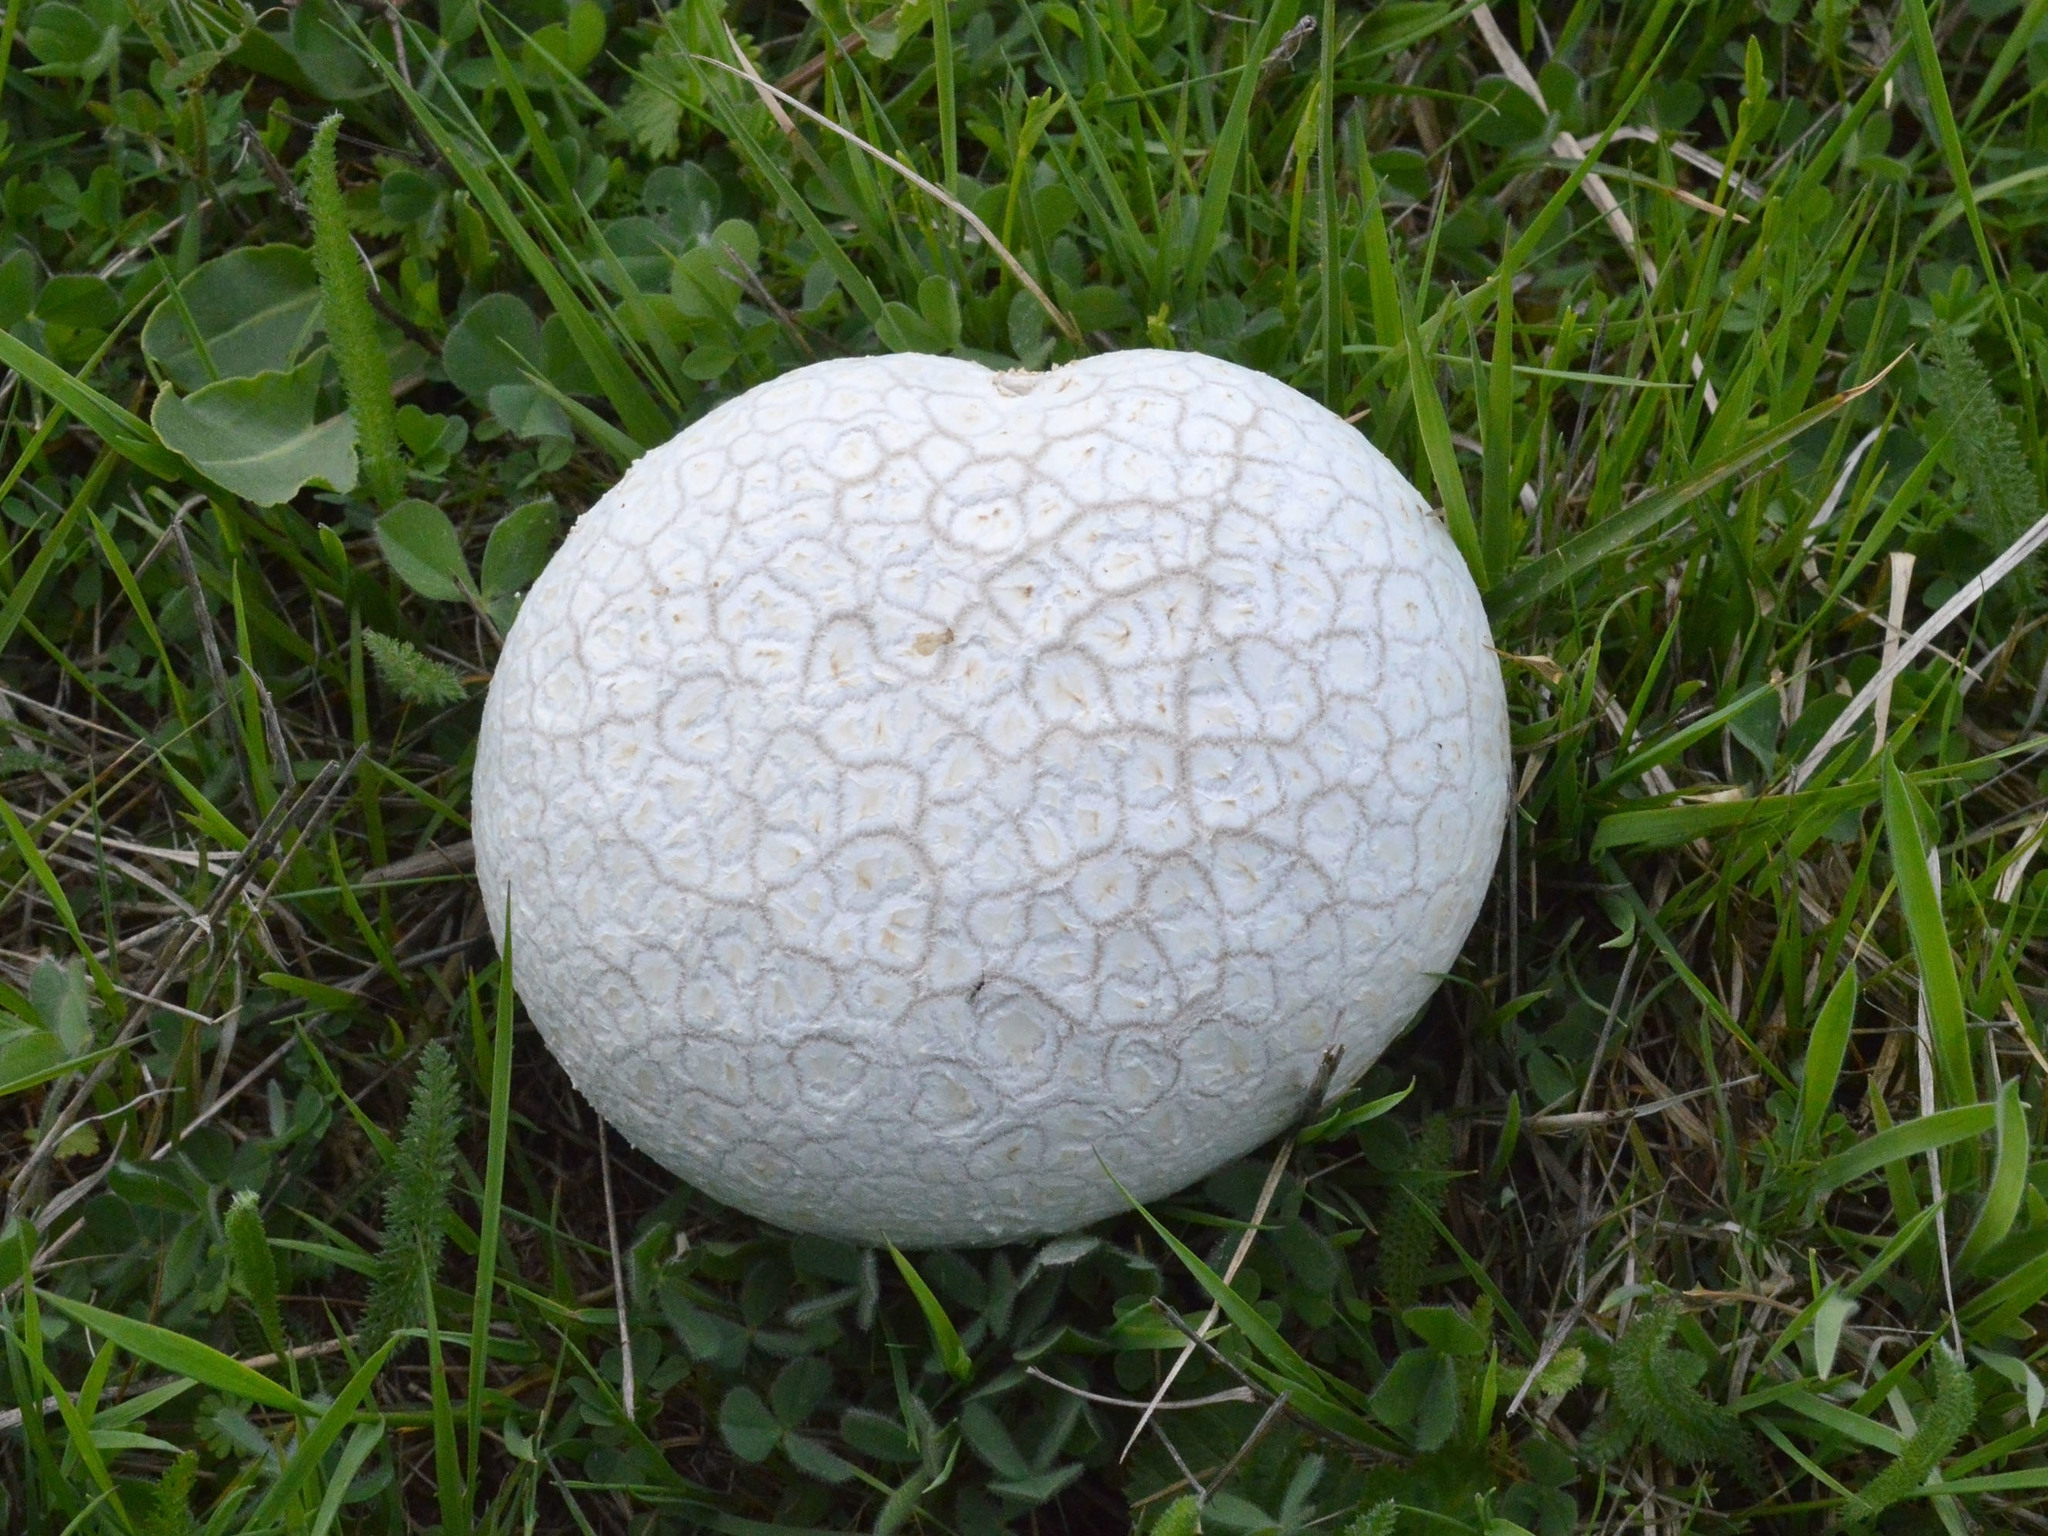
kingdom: Fungi
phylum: Basidiomycota
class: Agaricomycetes
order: Agaricales
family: Lycoperdaceae
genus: Bovistella
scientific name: Bovistella utriformis
